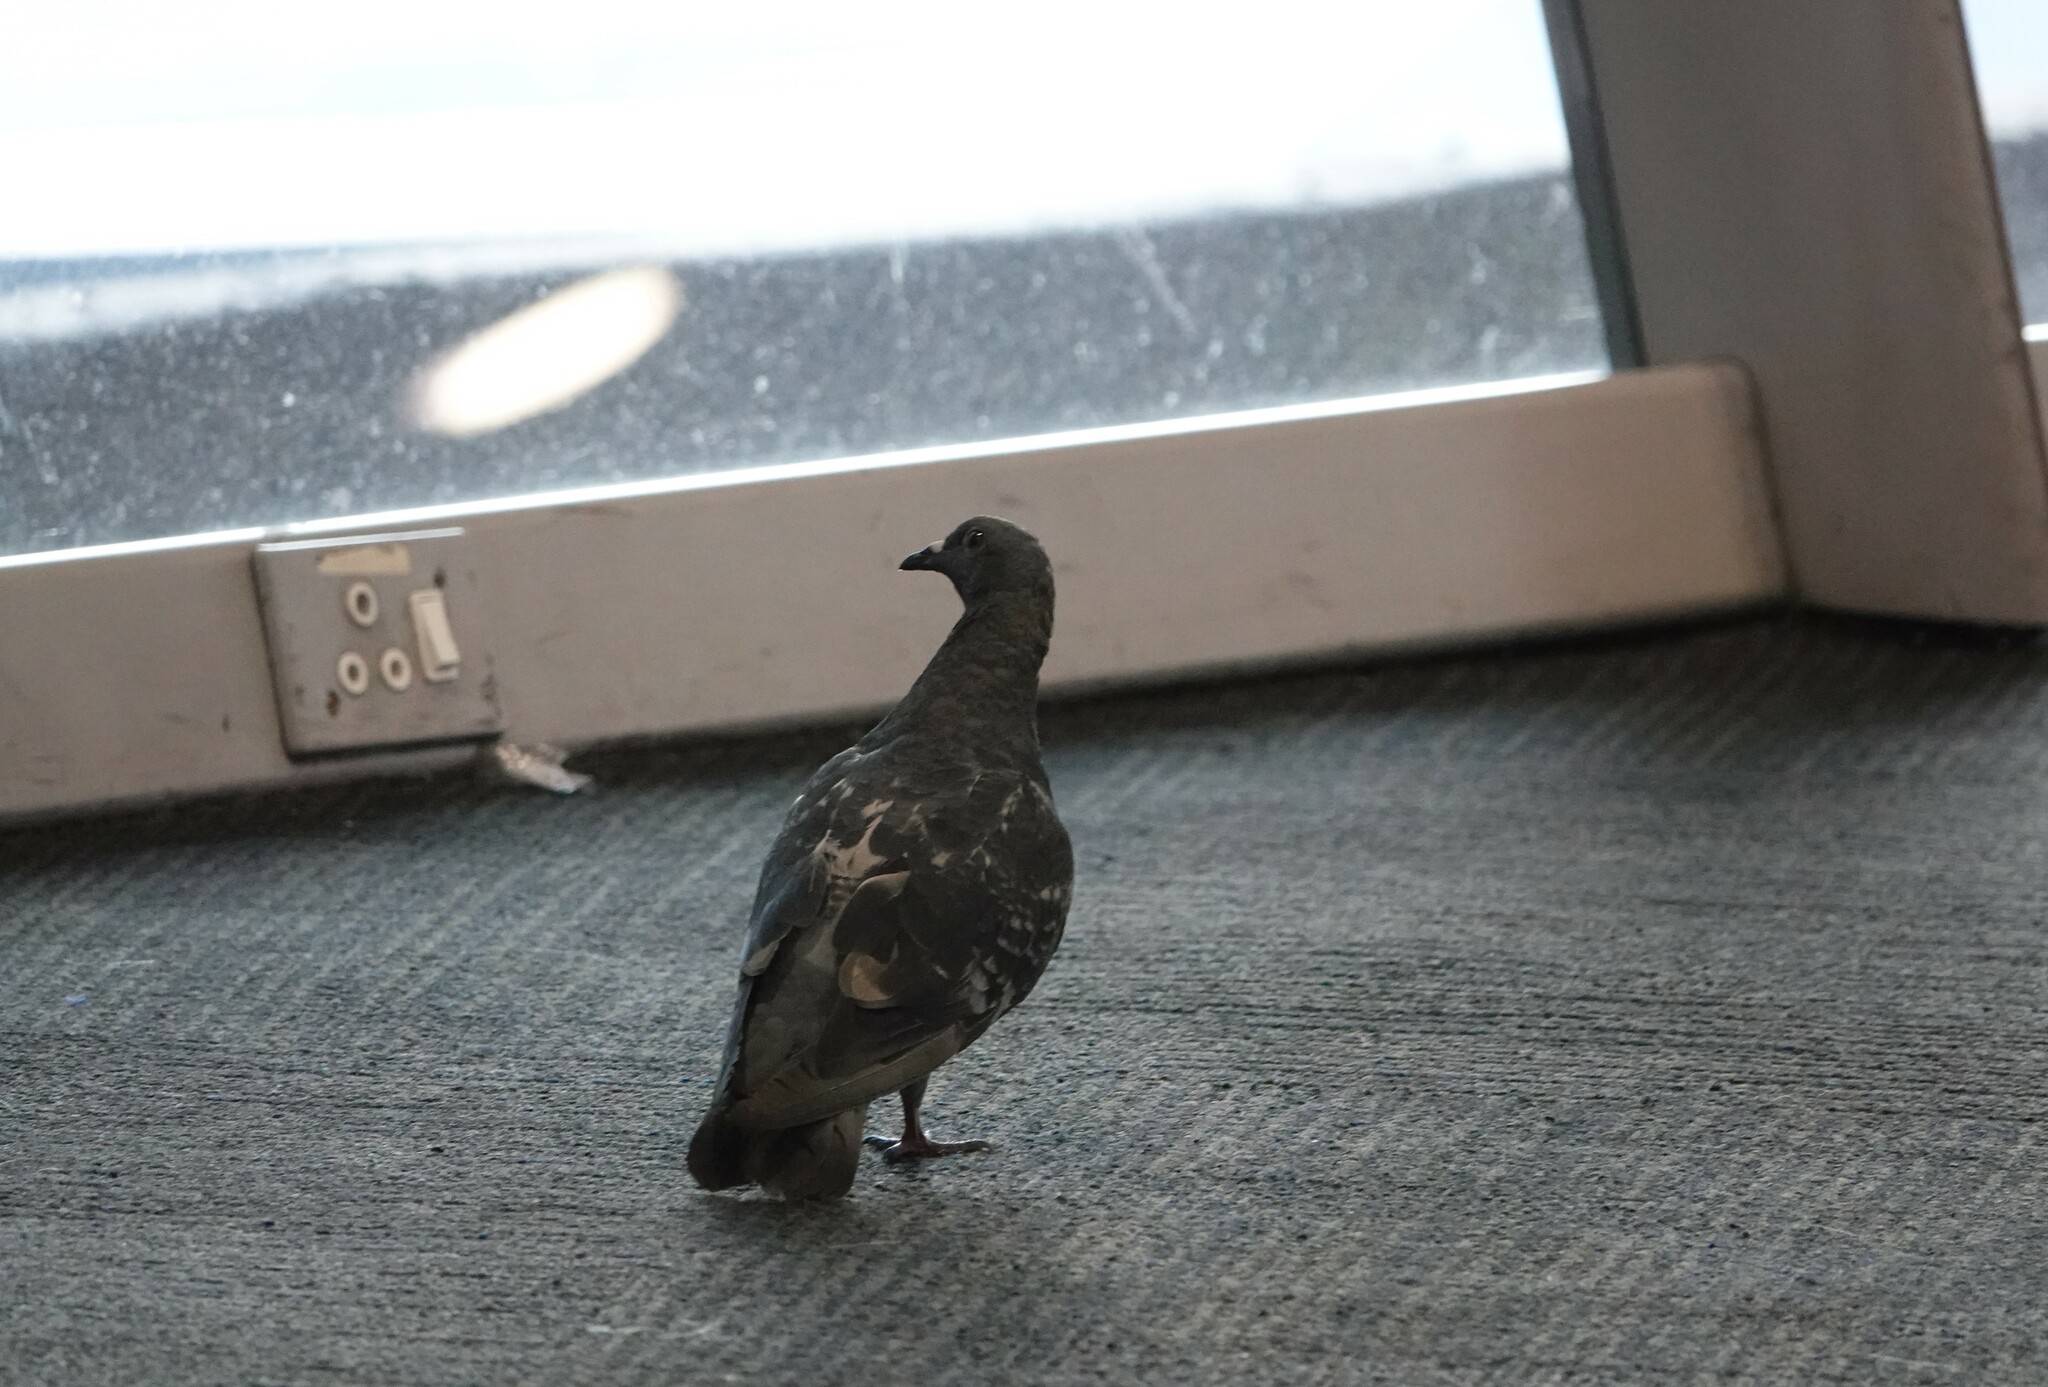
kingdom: Animalia
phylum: Chordata
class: Aves
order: Columbiformes
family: Columbidae
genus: Columba
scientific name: Columba livia
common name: Rock pigeon
